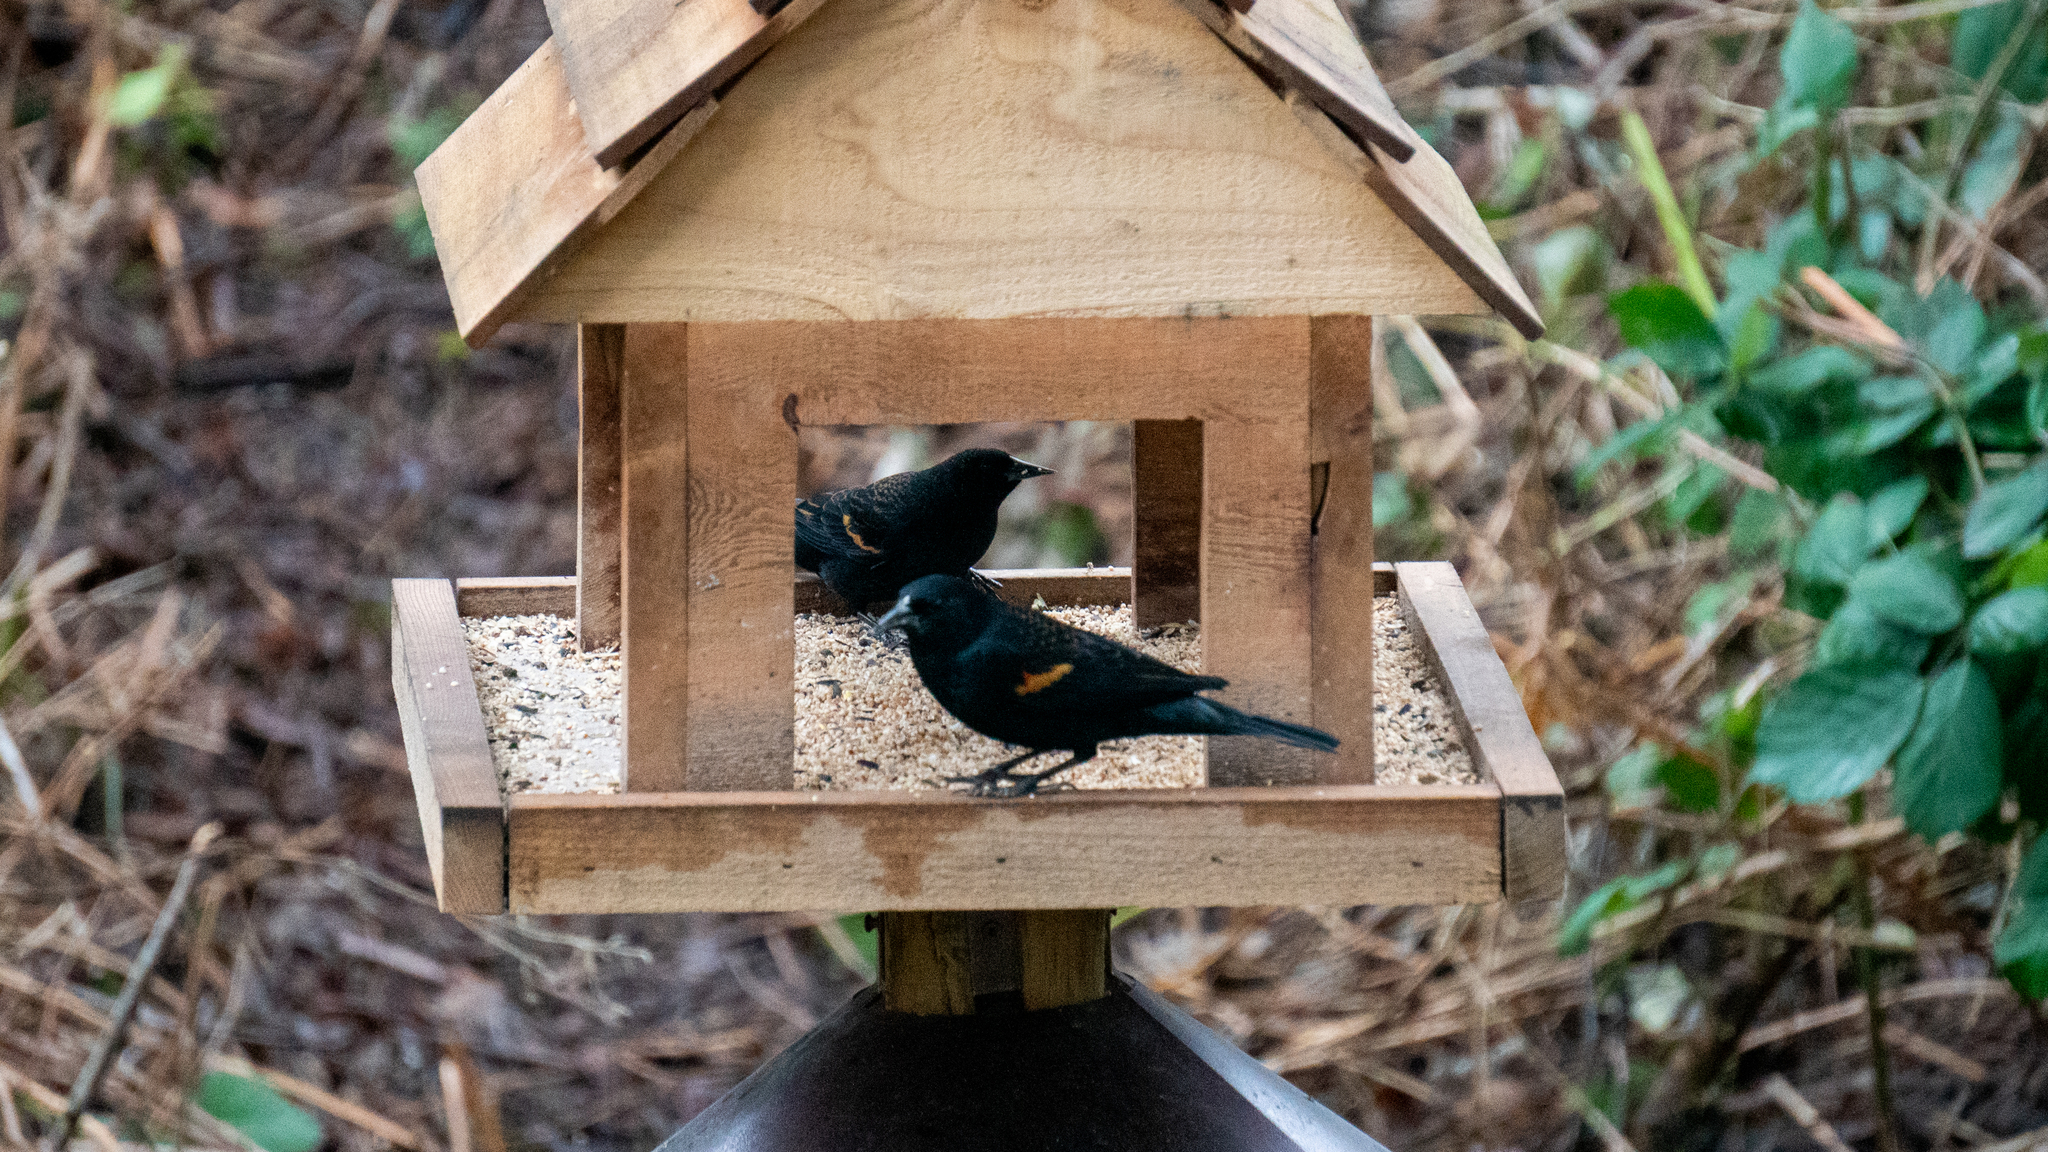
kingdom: Animalia
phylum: Chordata
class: Aves
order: Passeriformes
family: Icteridae
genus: Agelaius
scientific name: Agelaius phoeniceus
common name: Red-winged blackbird
